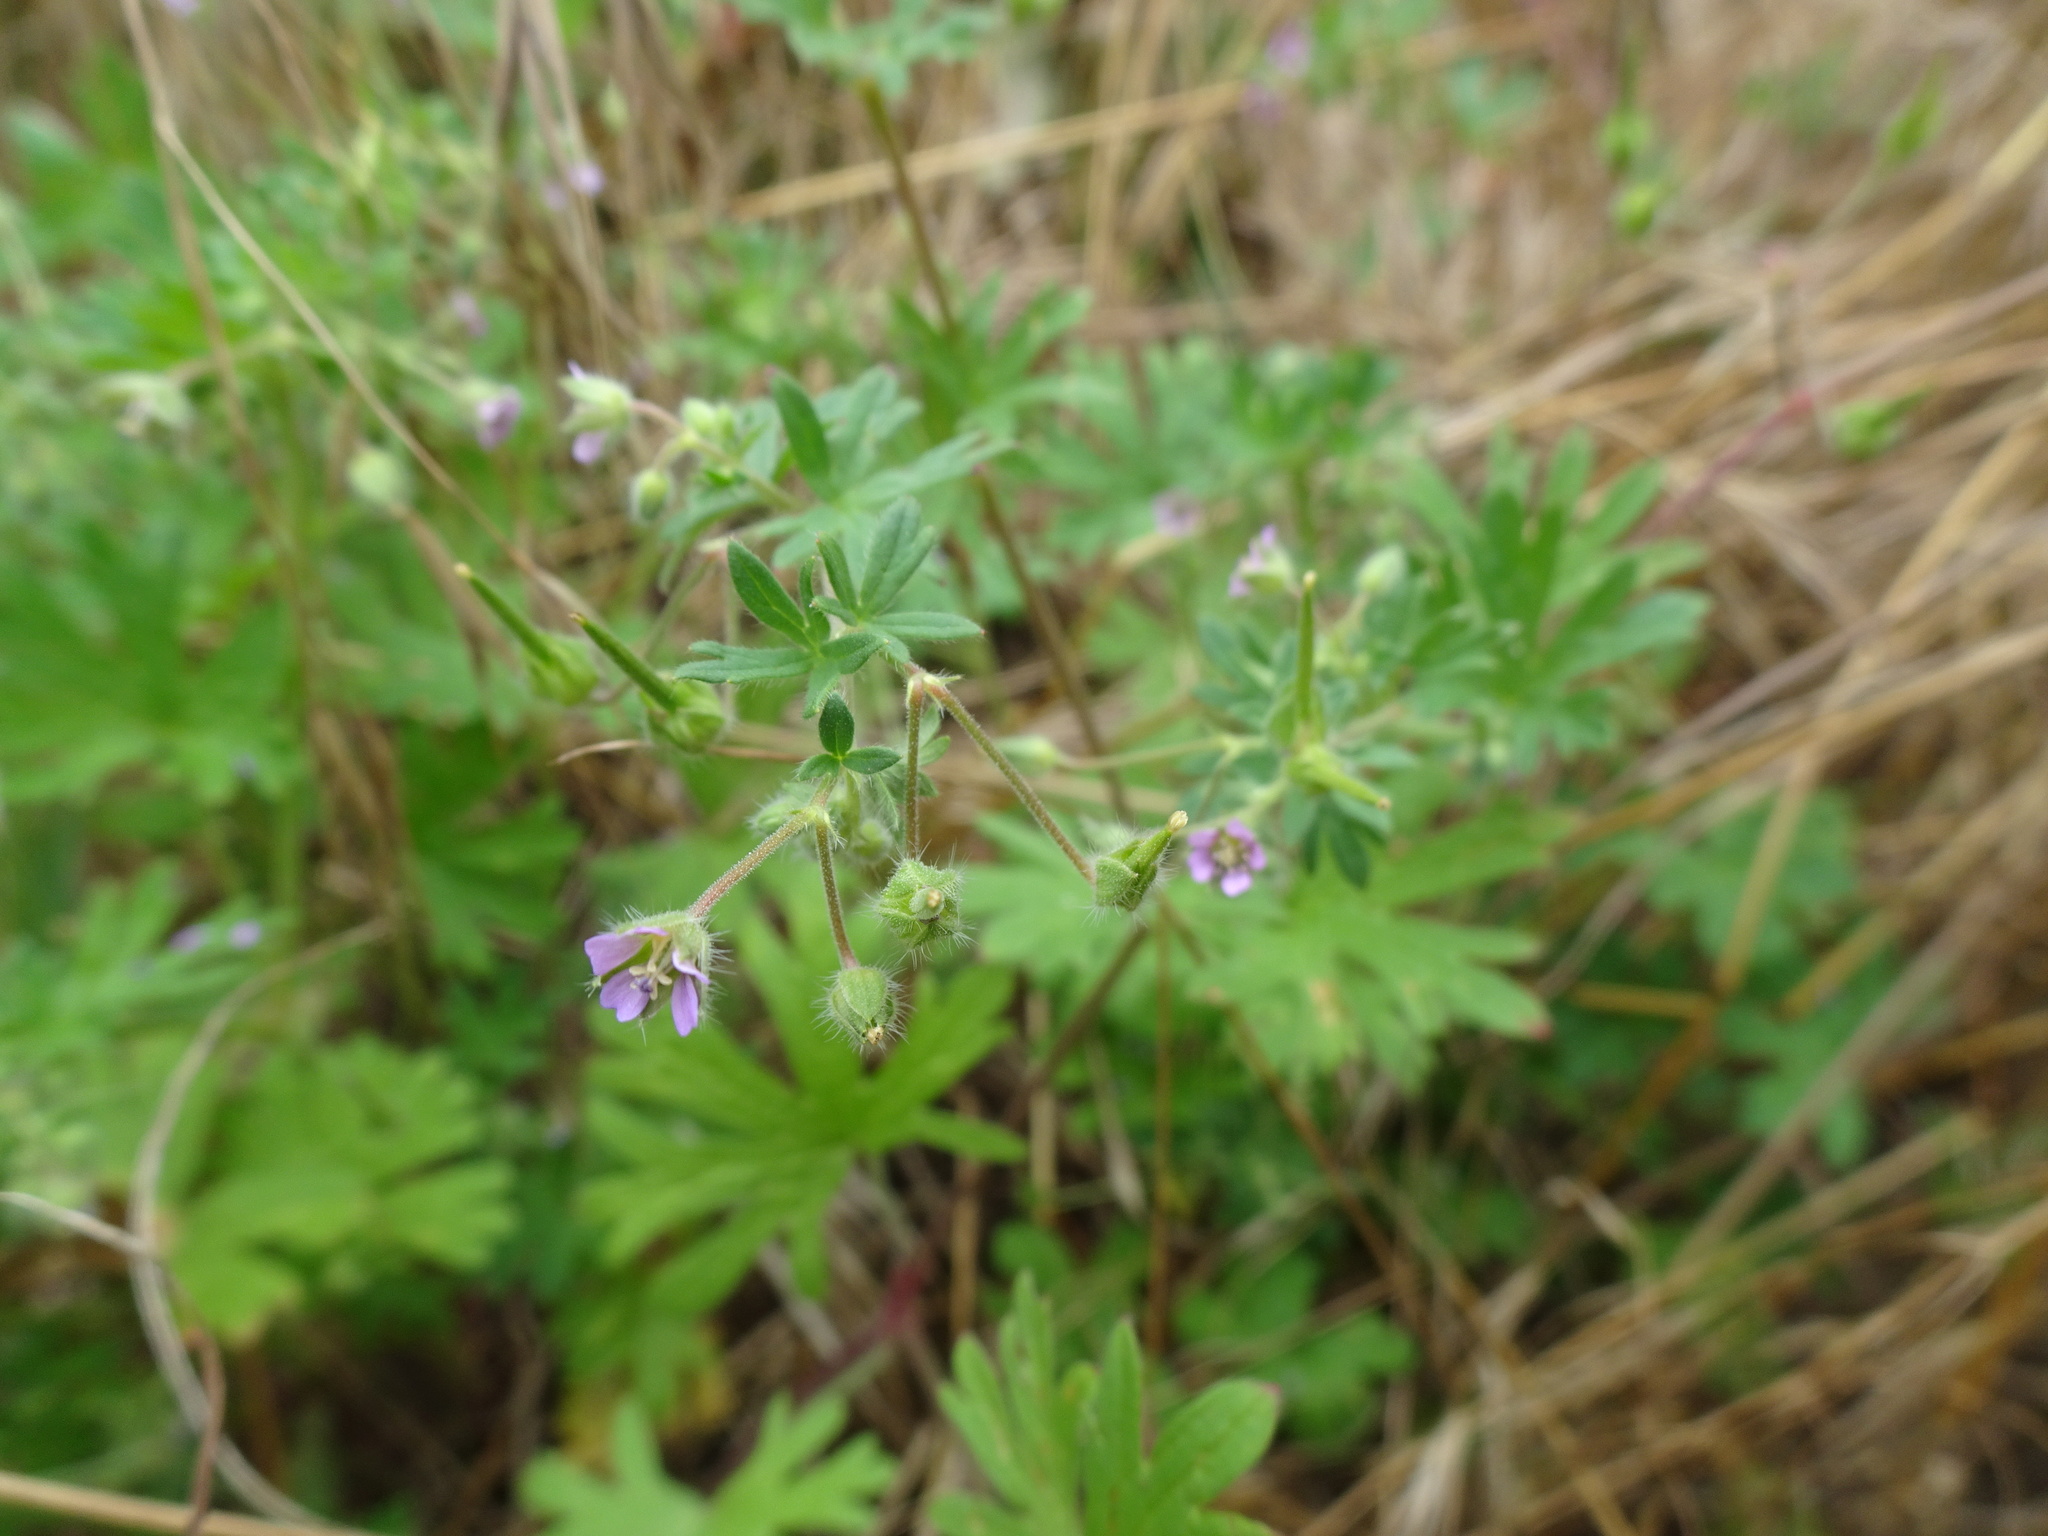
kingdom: Plantae
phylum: Tracheophyta
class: Magnoliopsida
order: Geraniales
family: Geraniaceae
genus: Geranium
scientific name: Geranium pusillum
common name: Small geranium
